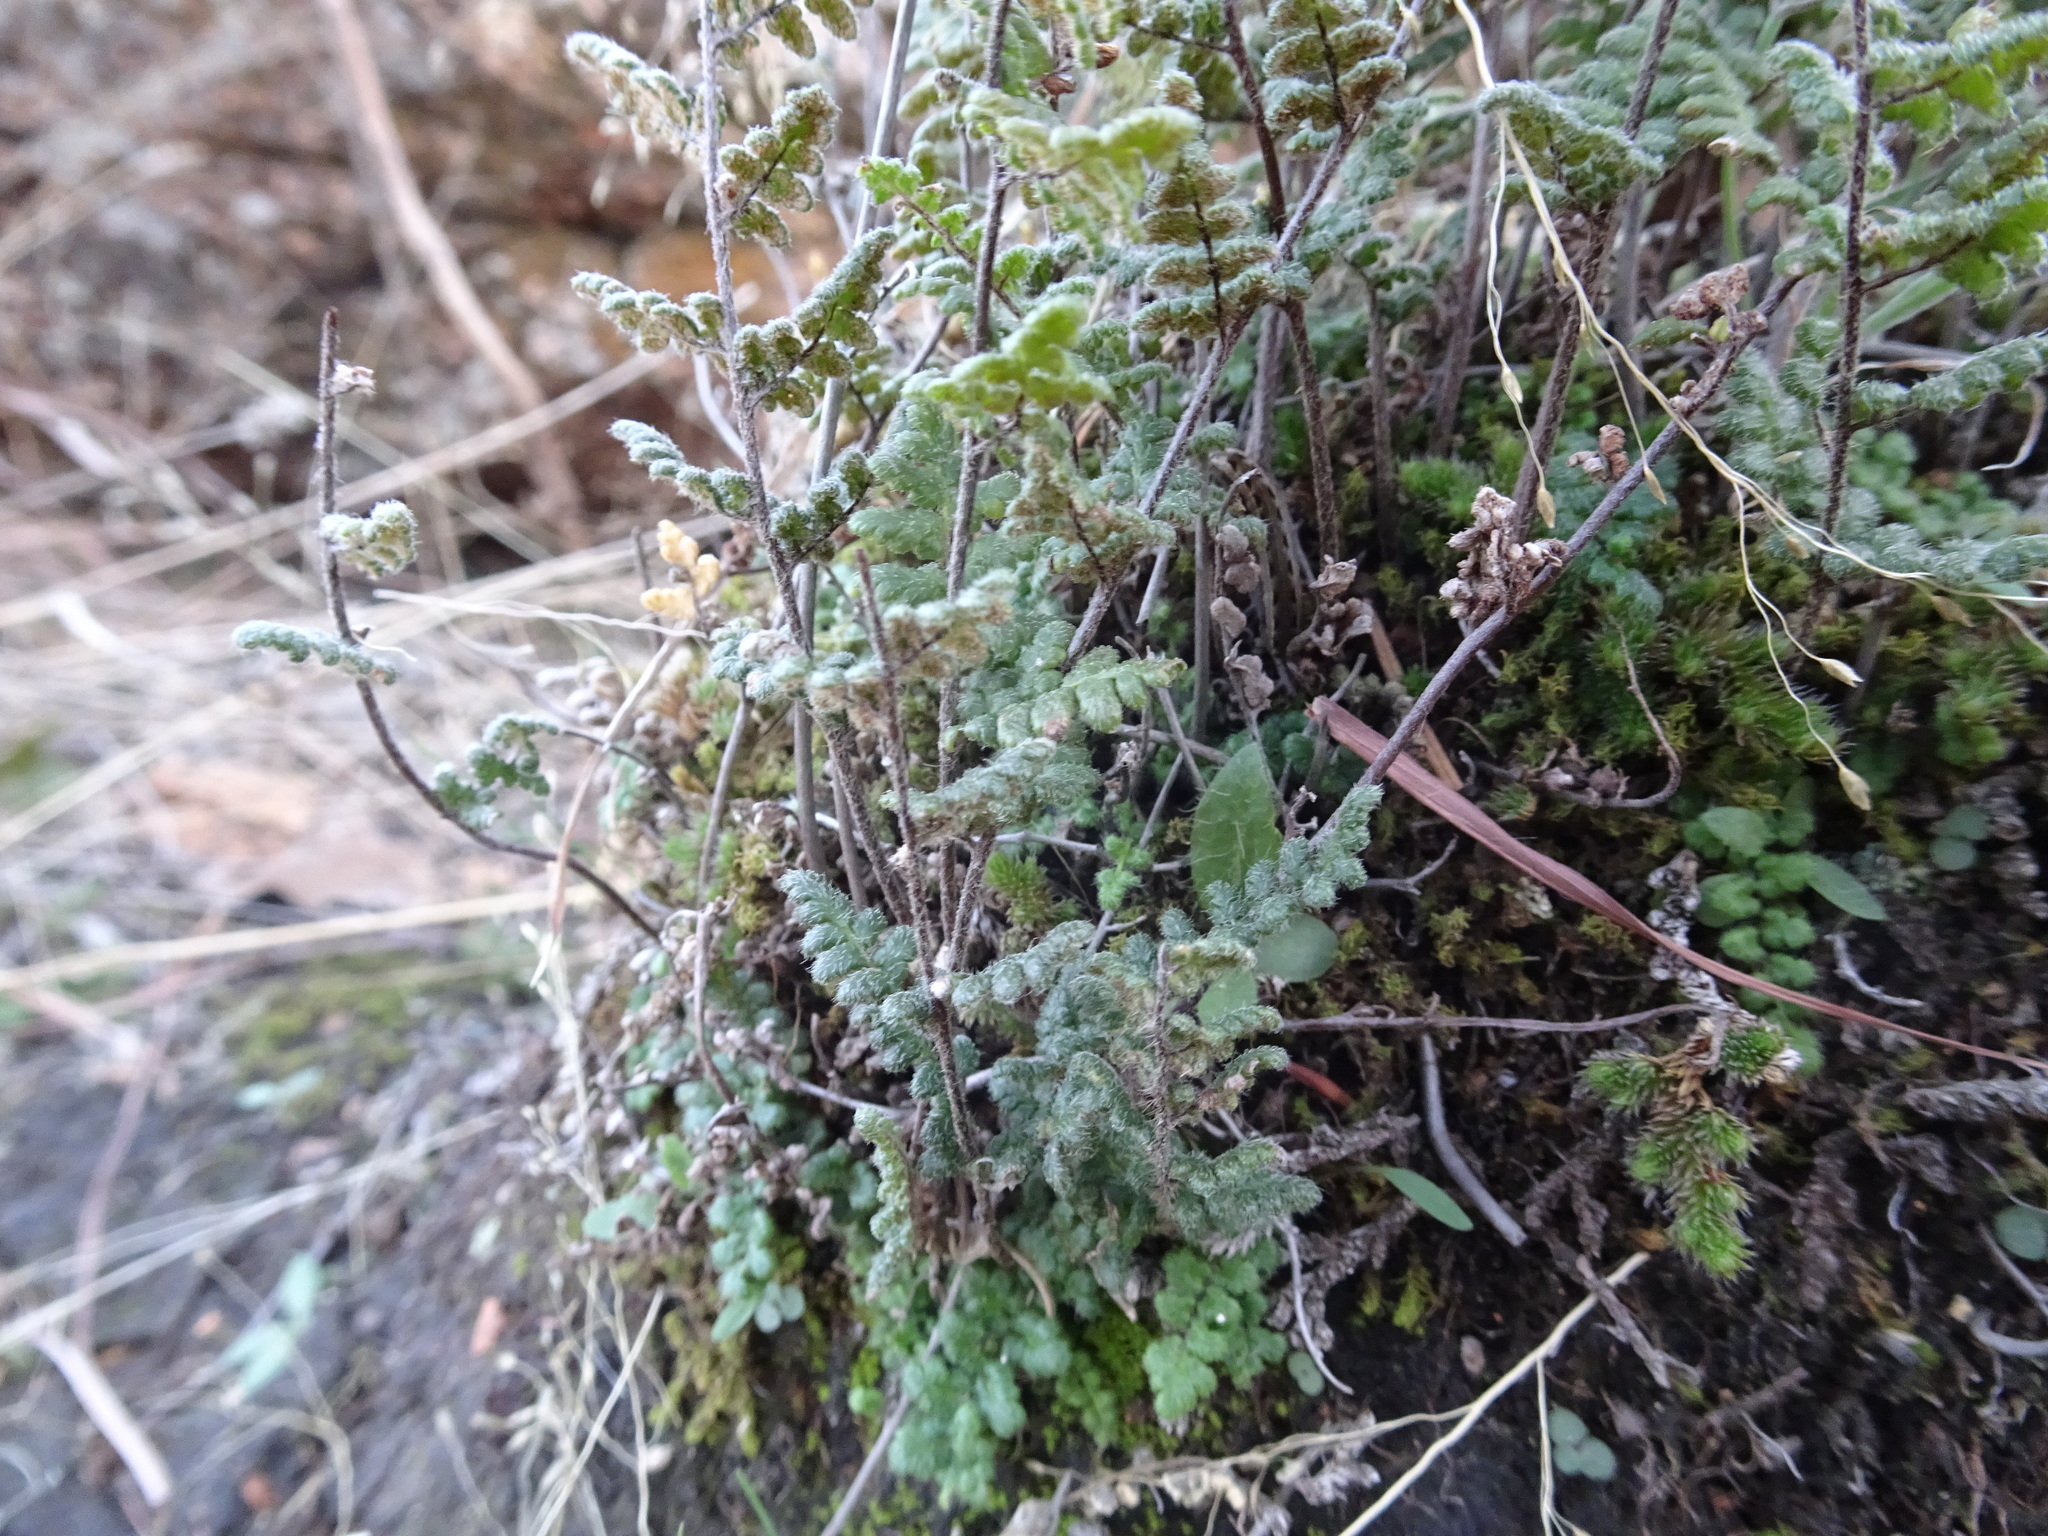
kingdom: Plantae
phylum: Tracheophyta
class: Polypodiopsida
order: Polypodiales
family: Pteridaceae
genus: Myriopteris
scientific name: Myriopteris lanosa
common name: Hairy lip fern
